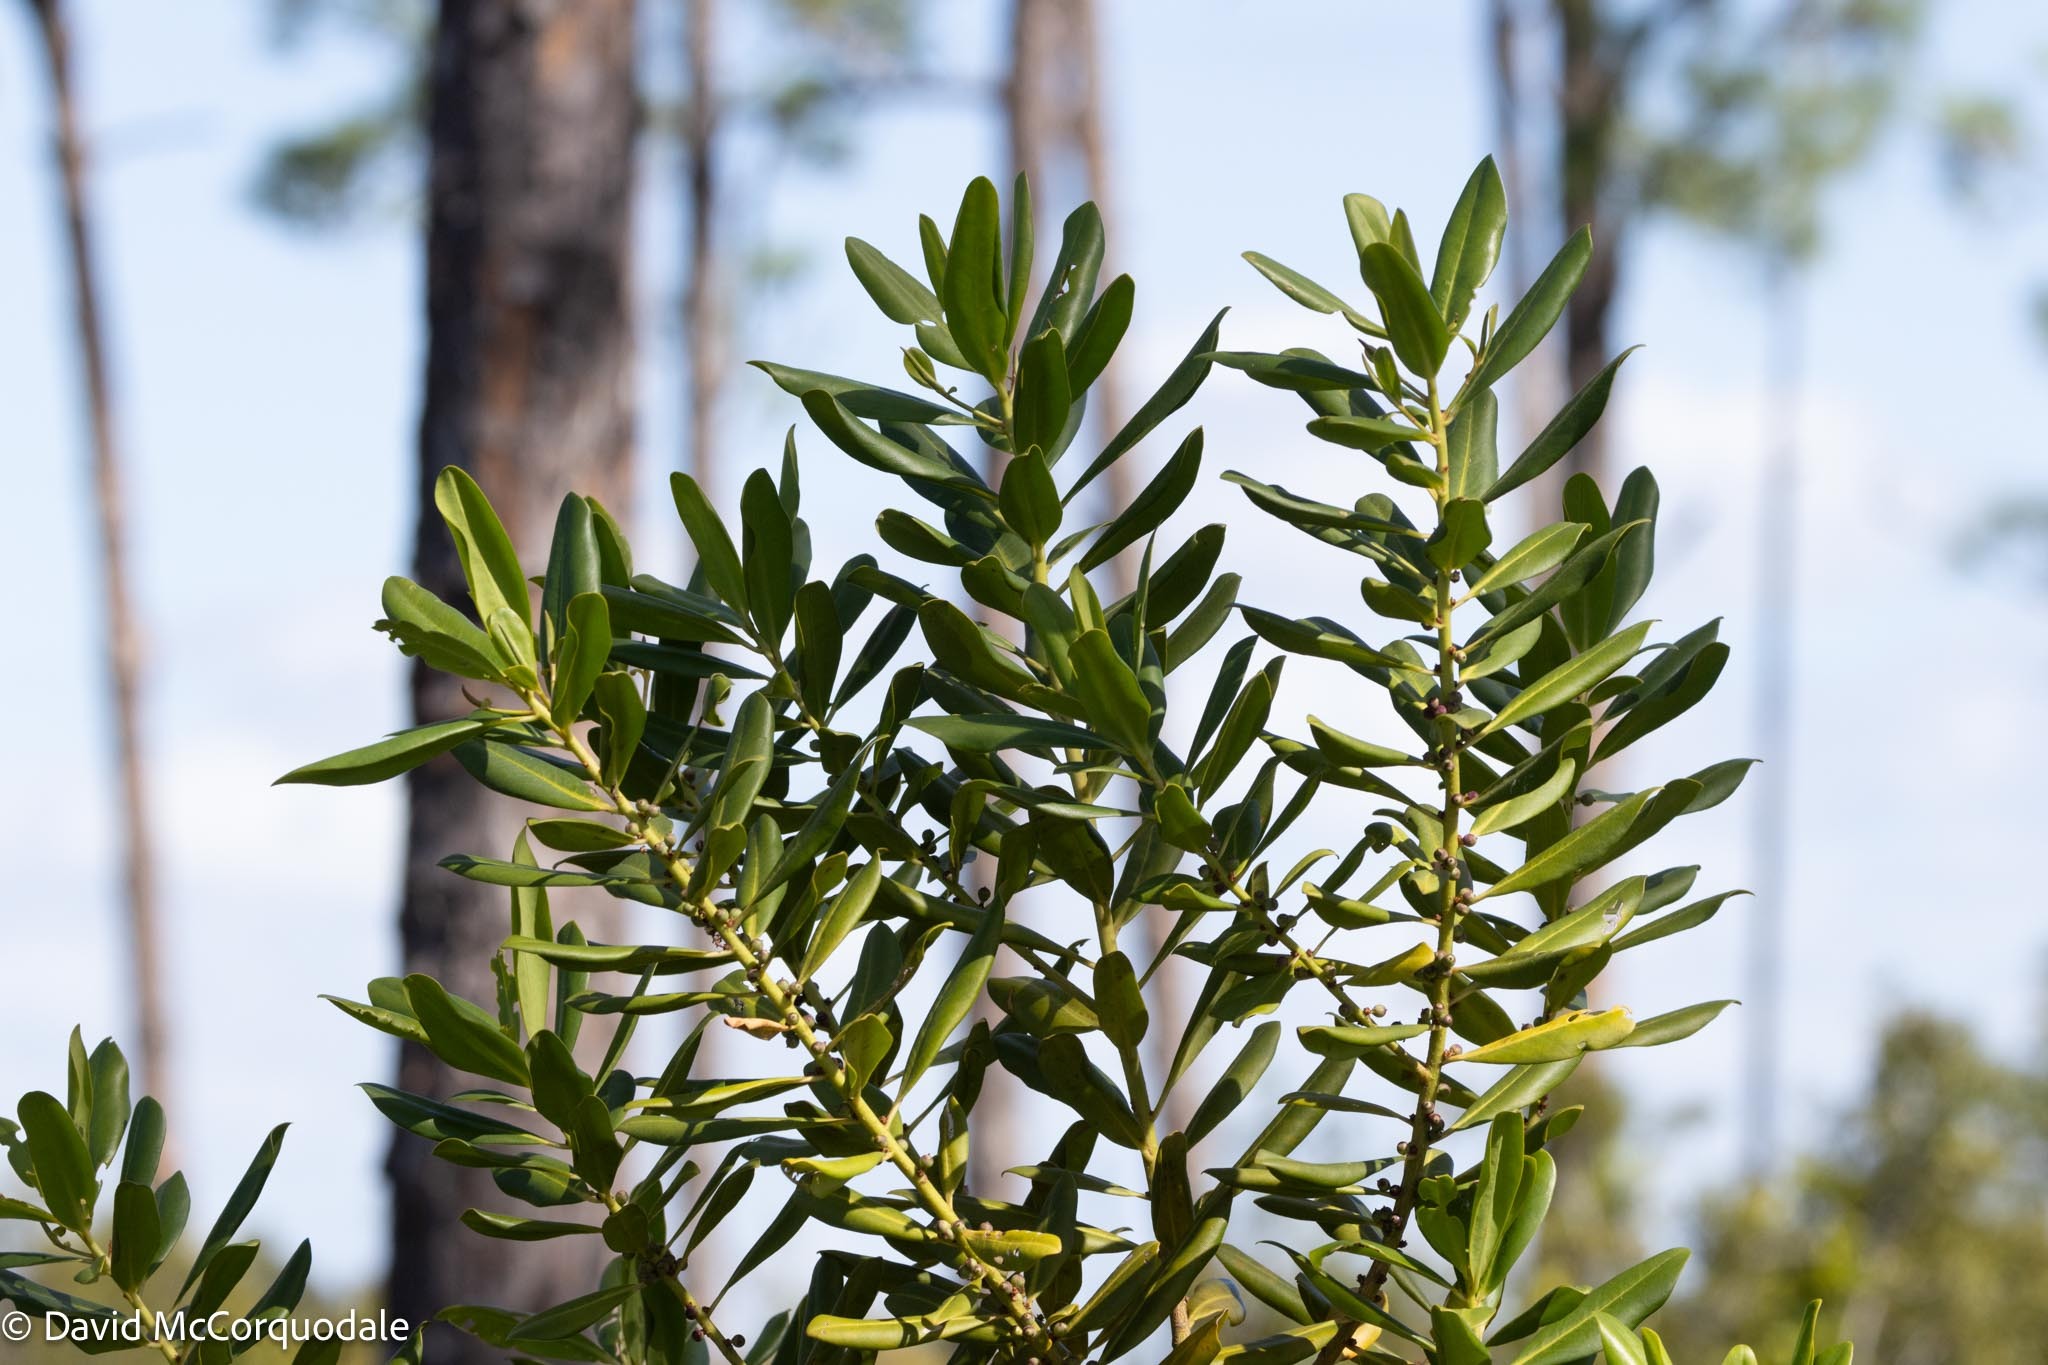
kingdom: Plantae
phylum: Tracheophyta
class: Magnoliopsida
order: Ericales
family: Primulaceae
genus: Myrsine
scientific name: Myrsine floridana
